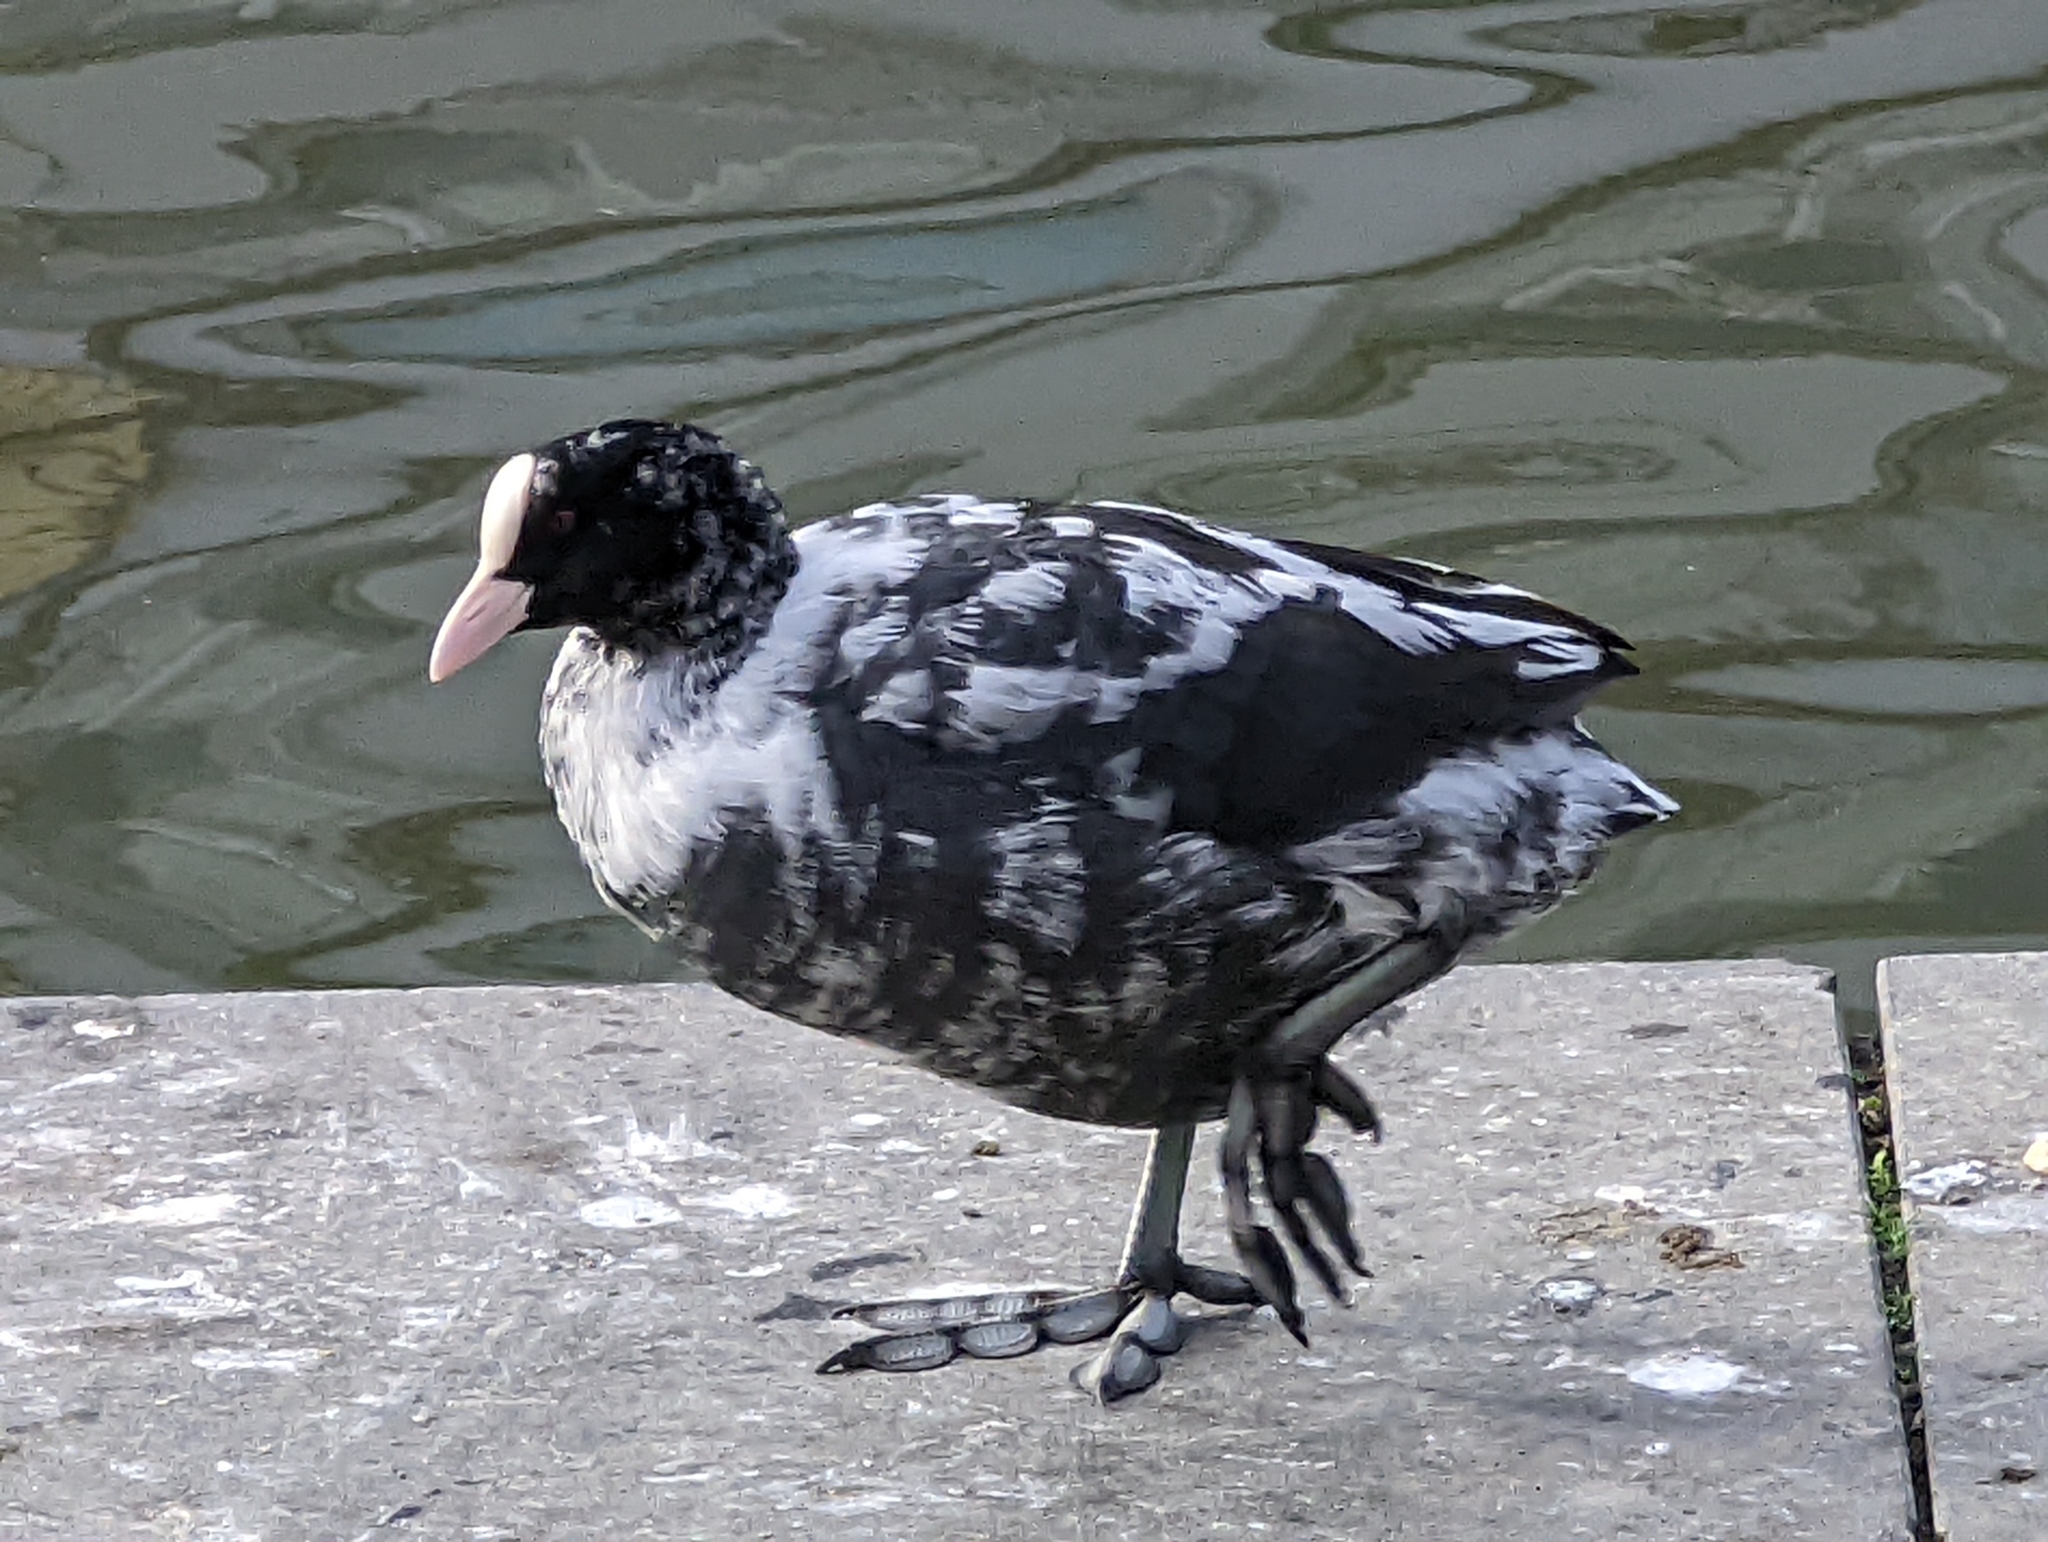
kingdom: Animalia
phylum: Chordata
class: Aves
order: Gruiformes
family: Rallidae
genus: Fulica
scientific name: Fulica atra
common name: Eurasian coot
